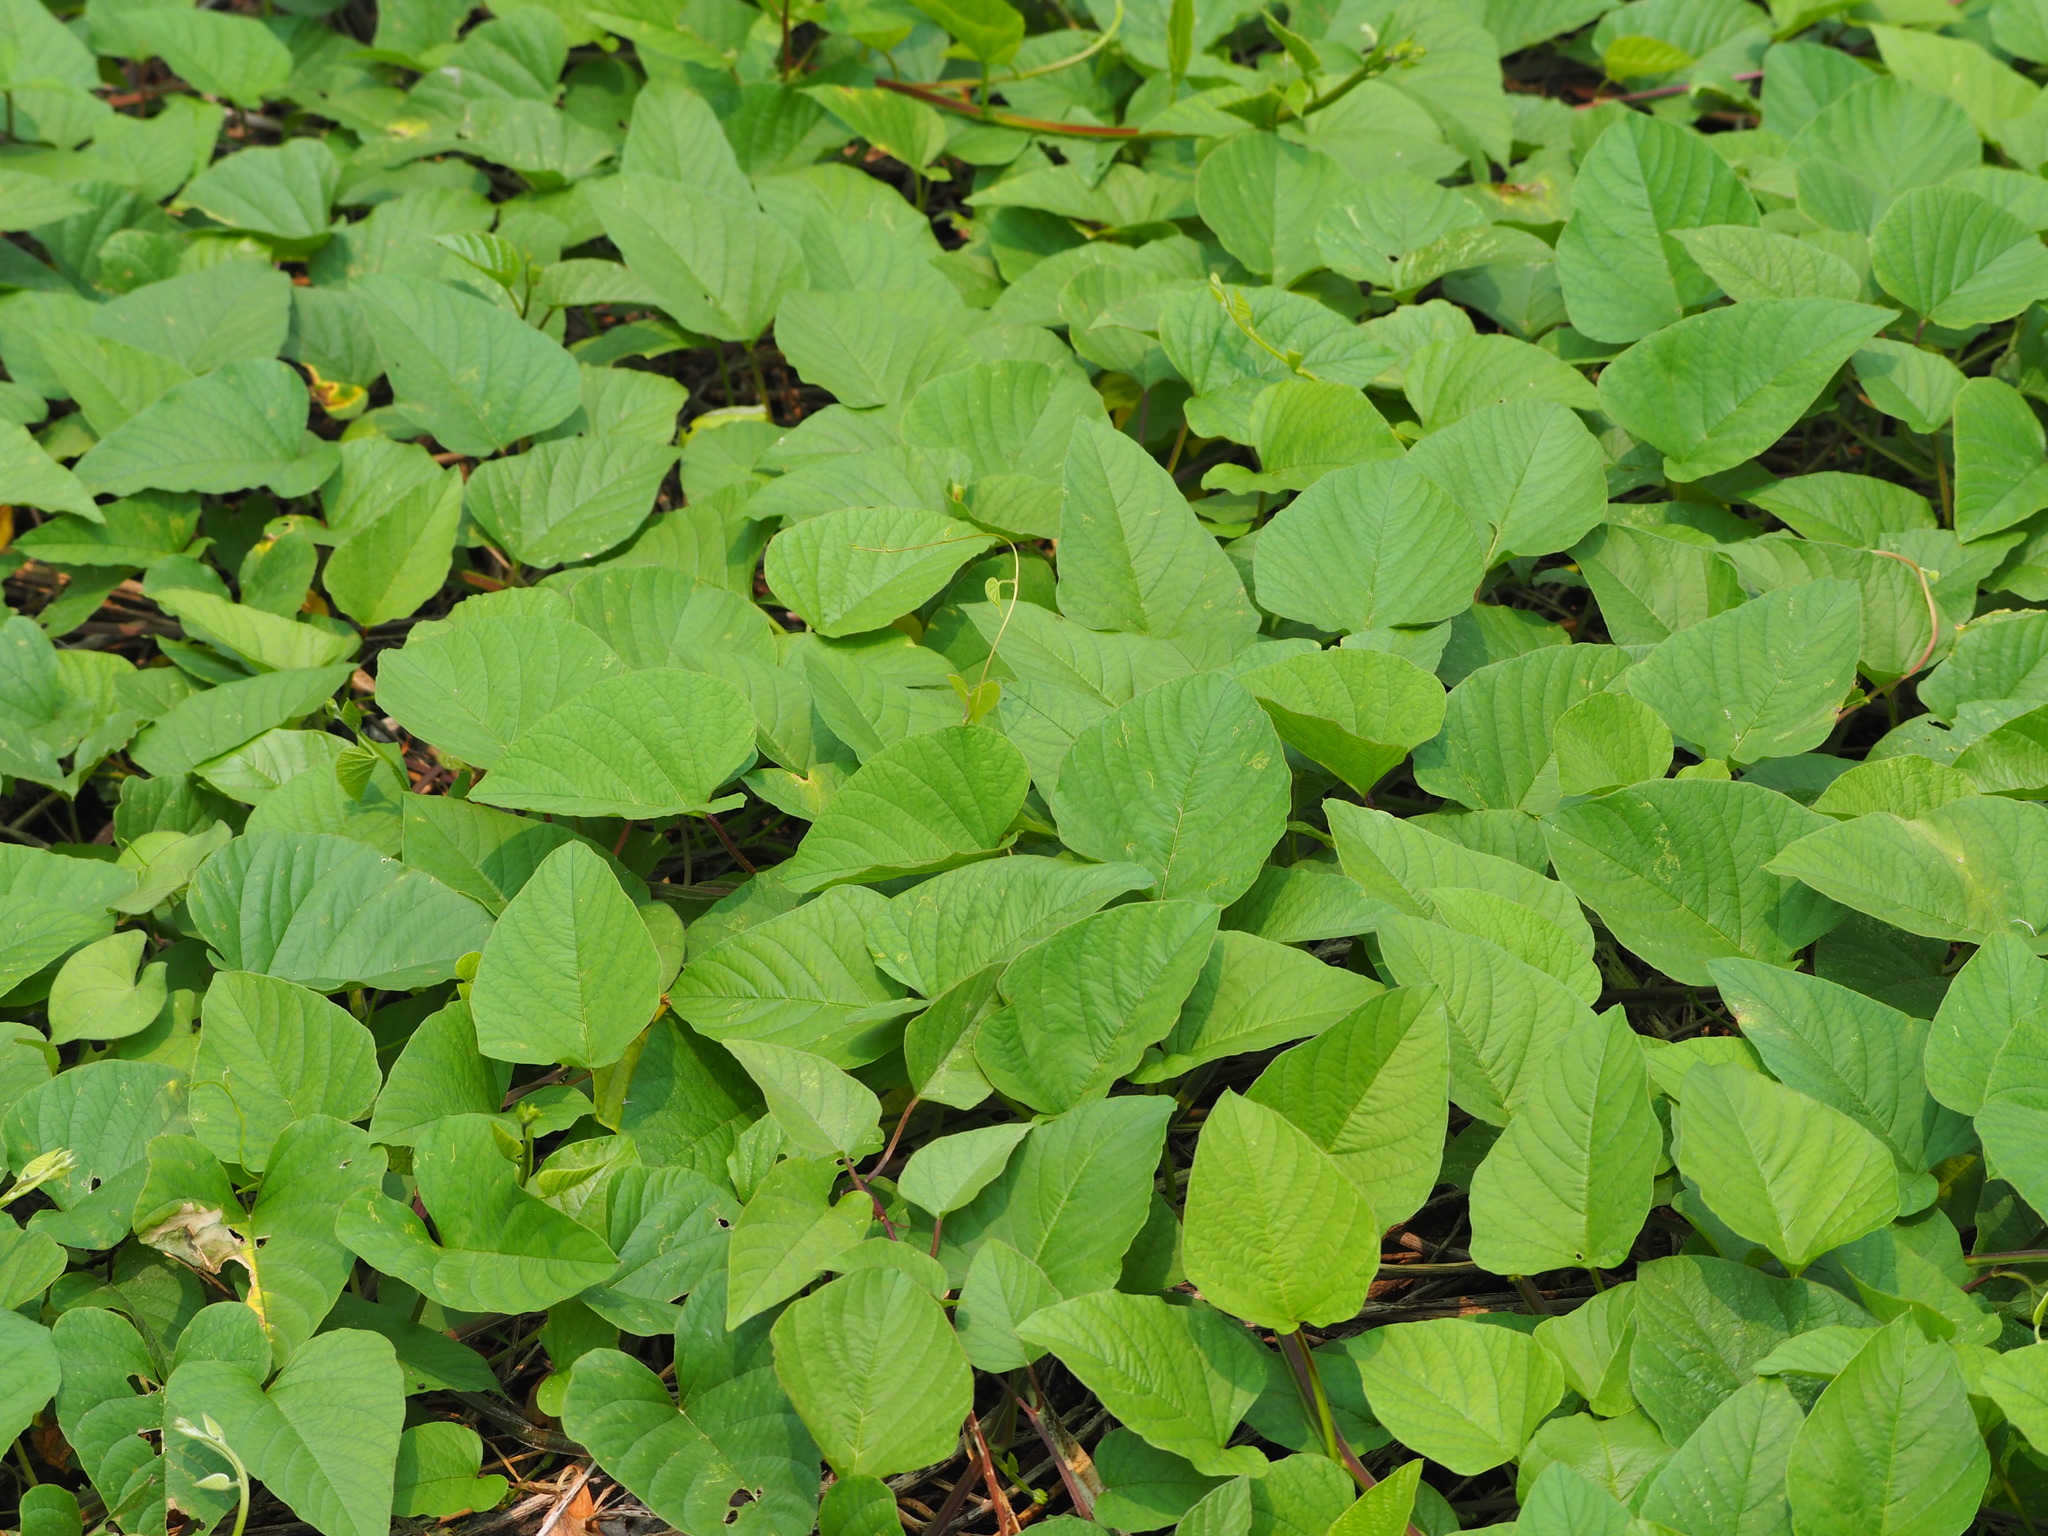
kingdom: Plantae
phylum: Tracheophyta
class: Magnoliopsida
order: Solanales
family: Convolvulaceae
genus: Operculina
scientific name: Operculina turpethum
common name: Transparent wood-rose
